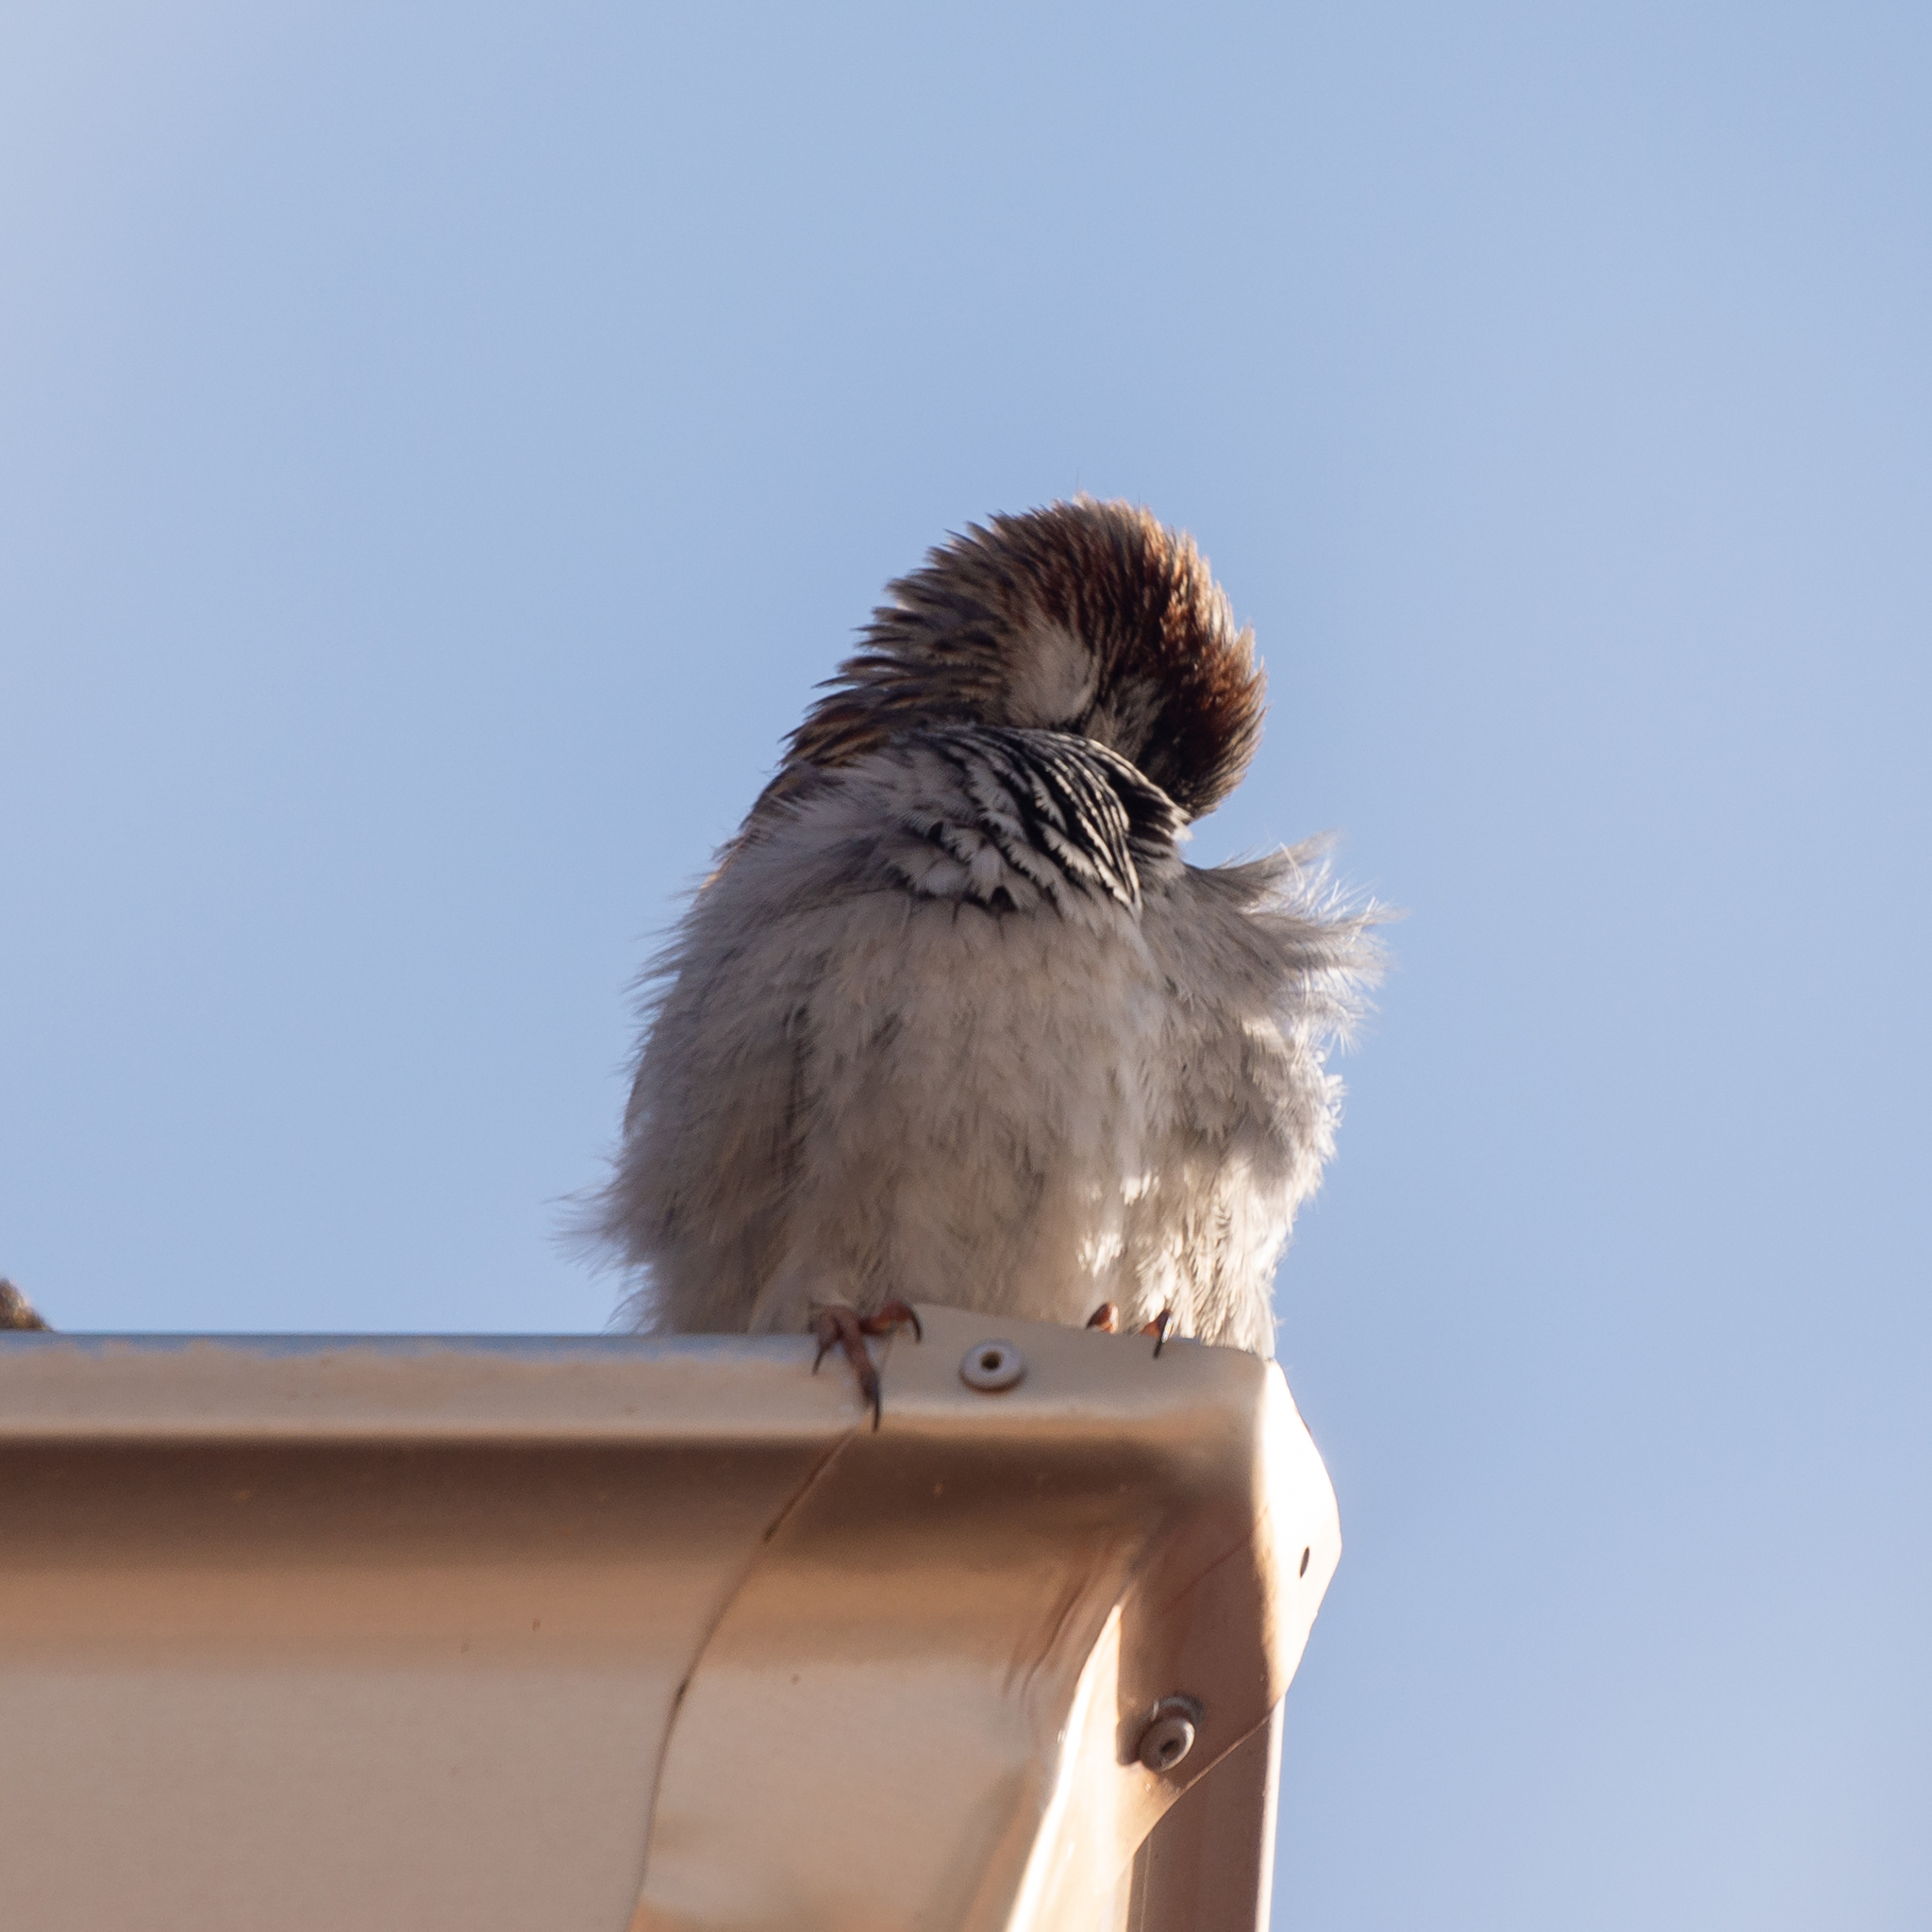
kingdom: Animalia
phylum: Chordata
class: Aves
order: Passeriformes
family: Passeridae
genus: Passer
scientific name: Passer domesticus
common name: House sparrow
